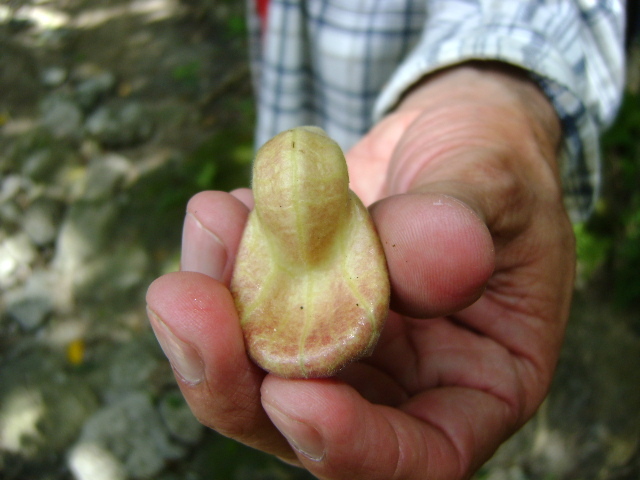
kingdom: Plantae
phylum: Tracheophyta
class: Magnoliopsida
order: Piperales
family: Aristolochiaceae
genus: Isotrema
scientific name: Isotrema veracruzanum
